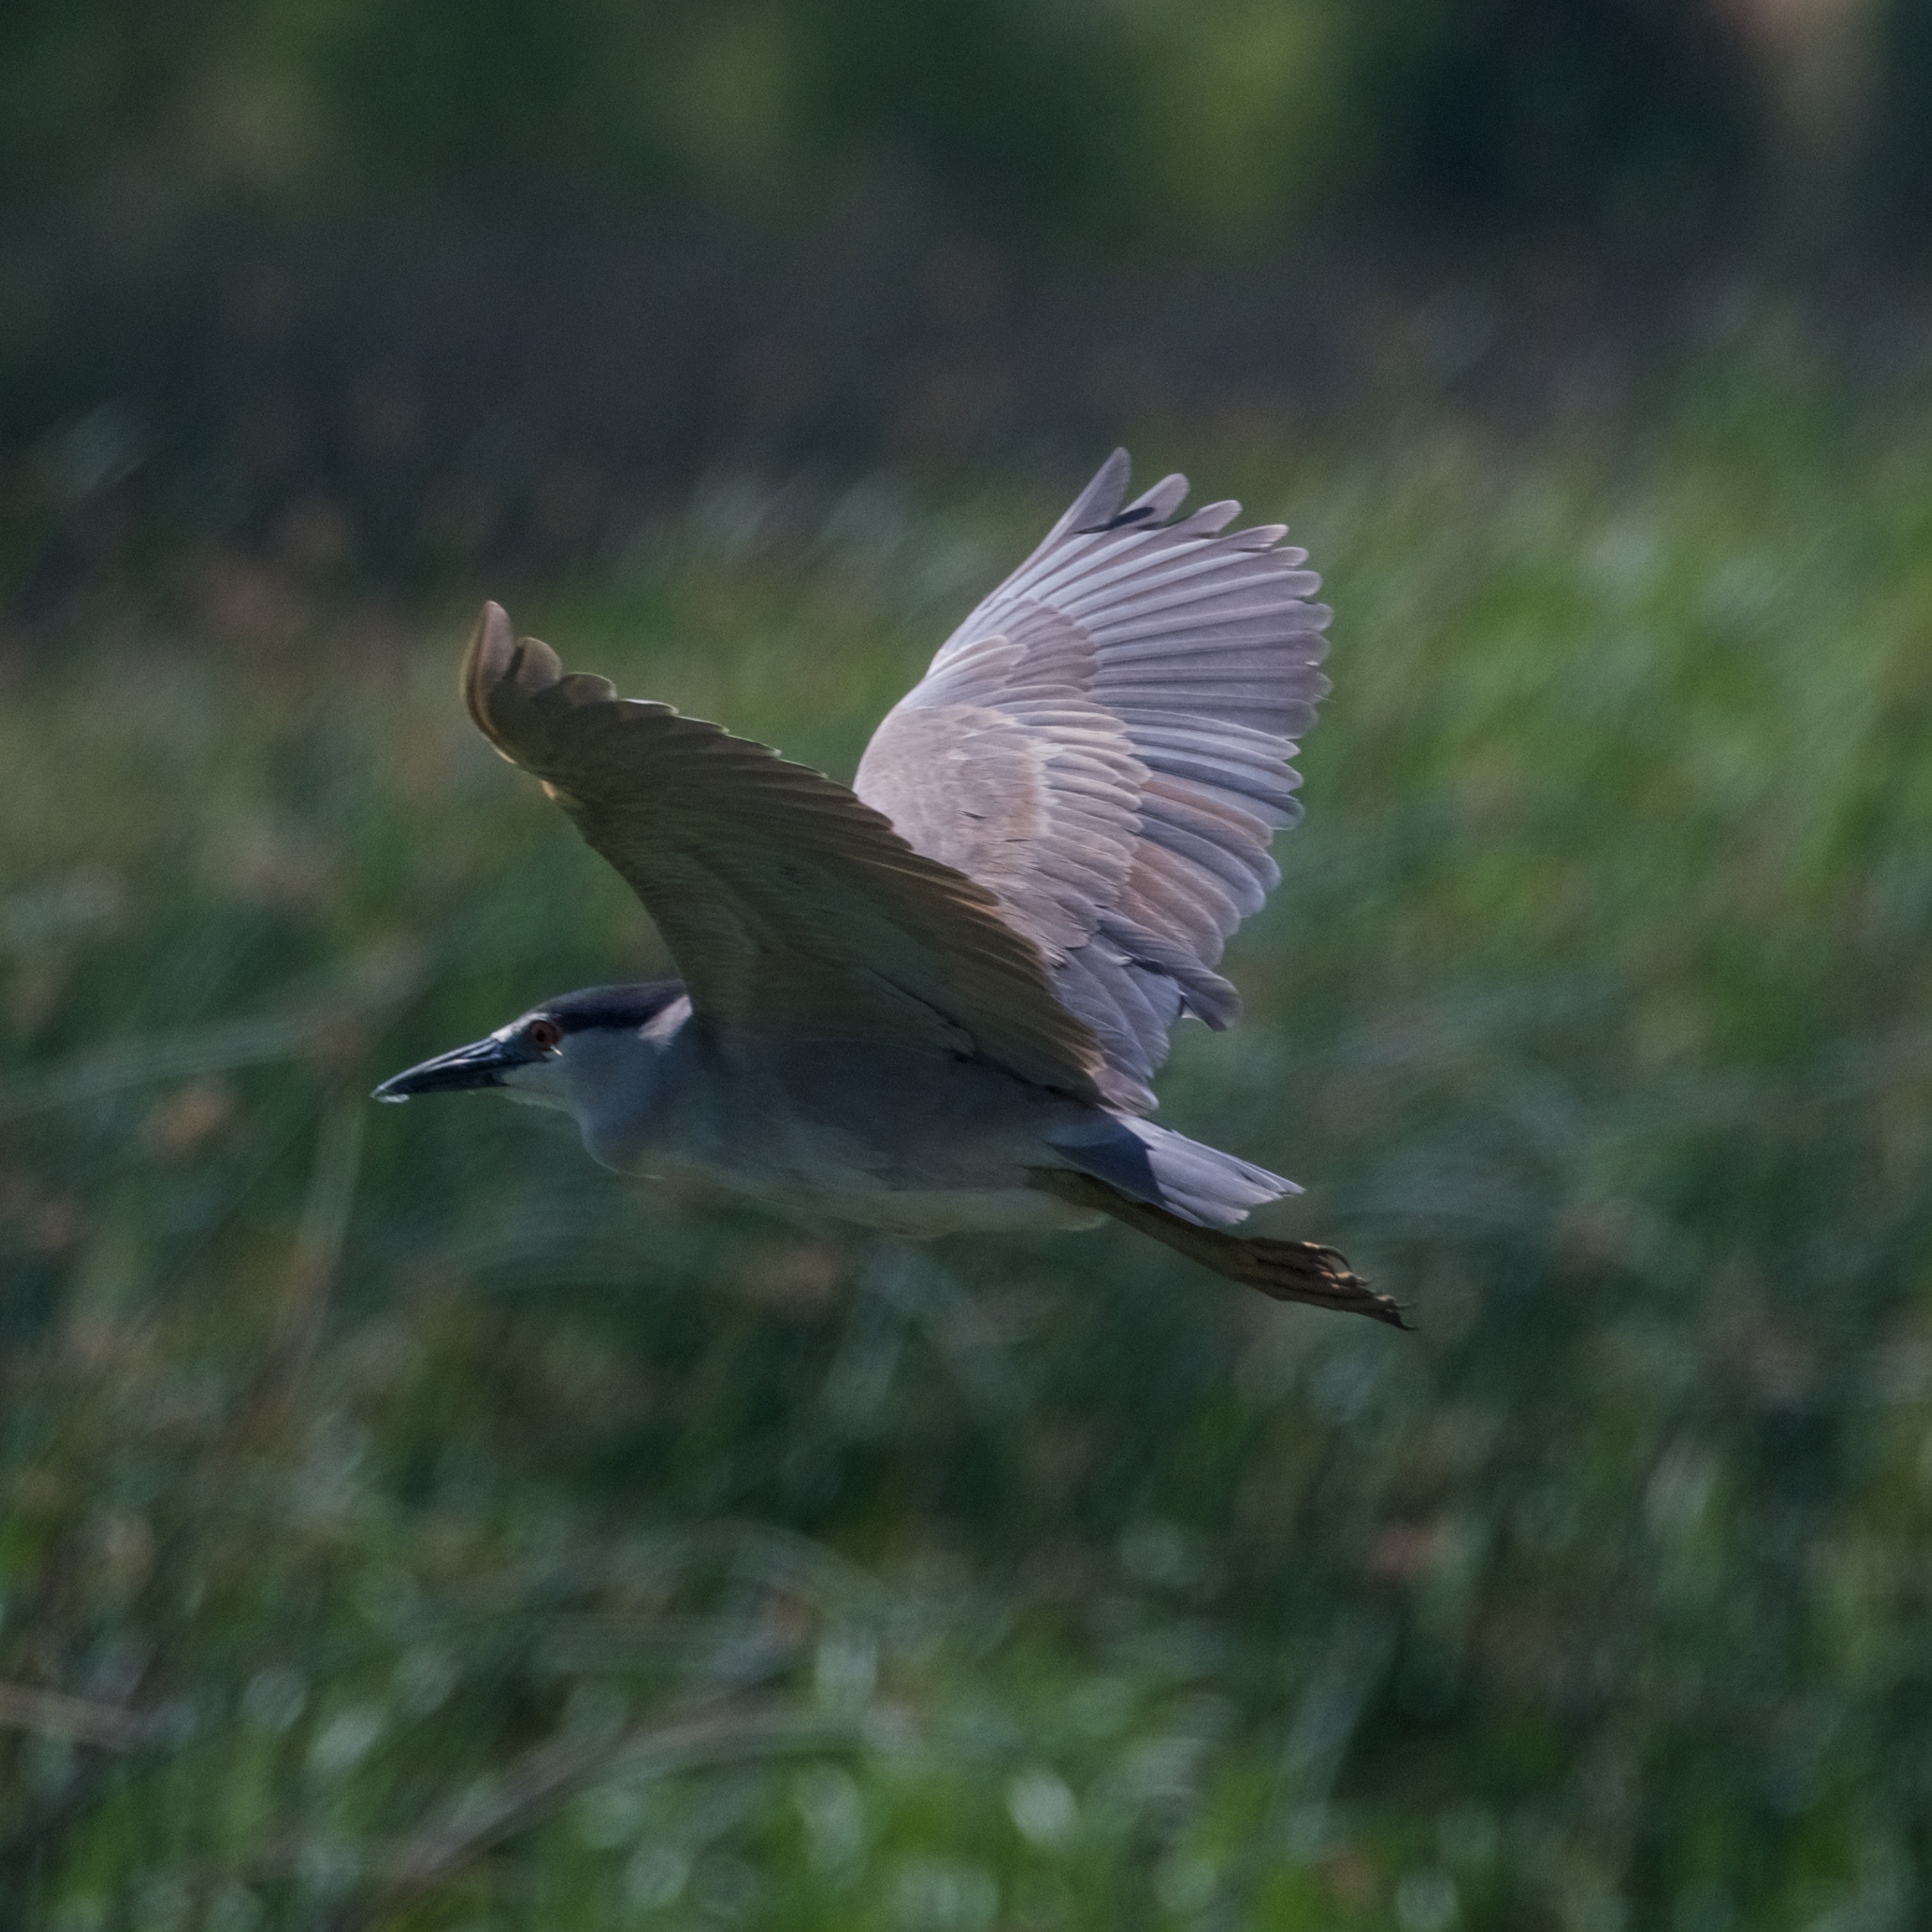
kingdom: Animalia
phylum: Chordata
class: Aves
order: Pelecaniformes
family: Ardeidae
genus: Nycticorax
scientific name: Nycticorax nycticorax
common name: Black-crowned night heron
